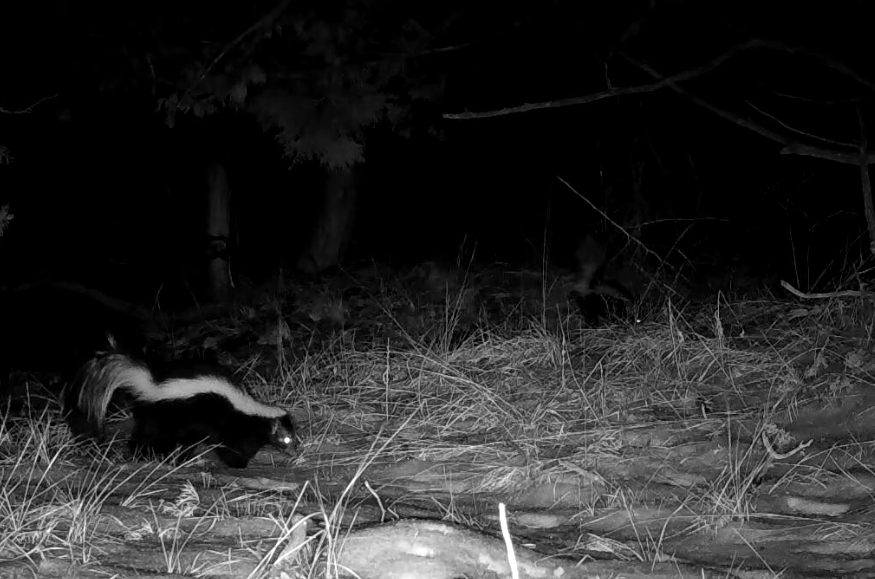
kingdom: Animalia
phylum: Chordata
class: Mammalia
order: Carnivora
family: Mephitidae
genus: Mephitis
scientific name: Mephitis mephitis
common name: Striped skunk
